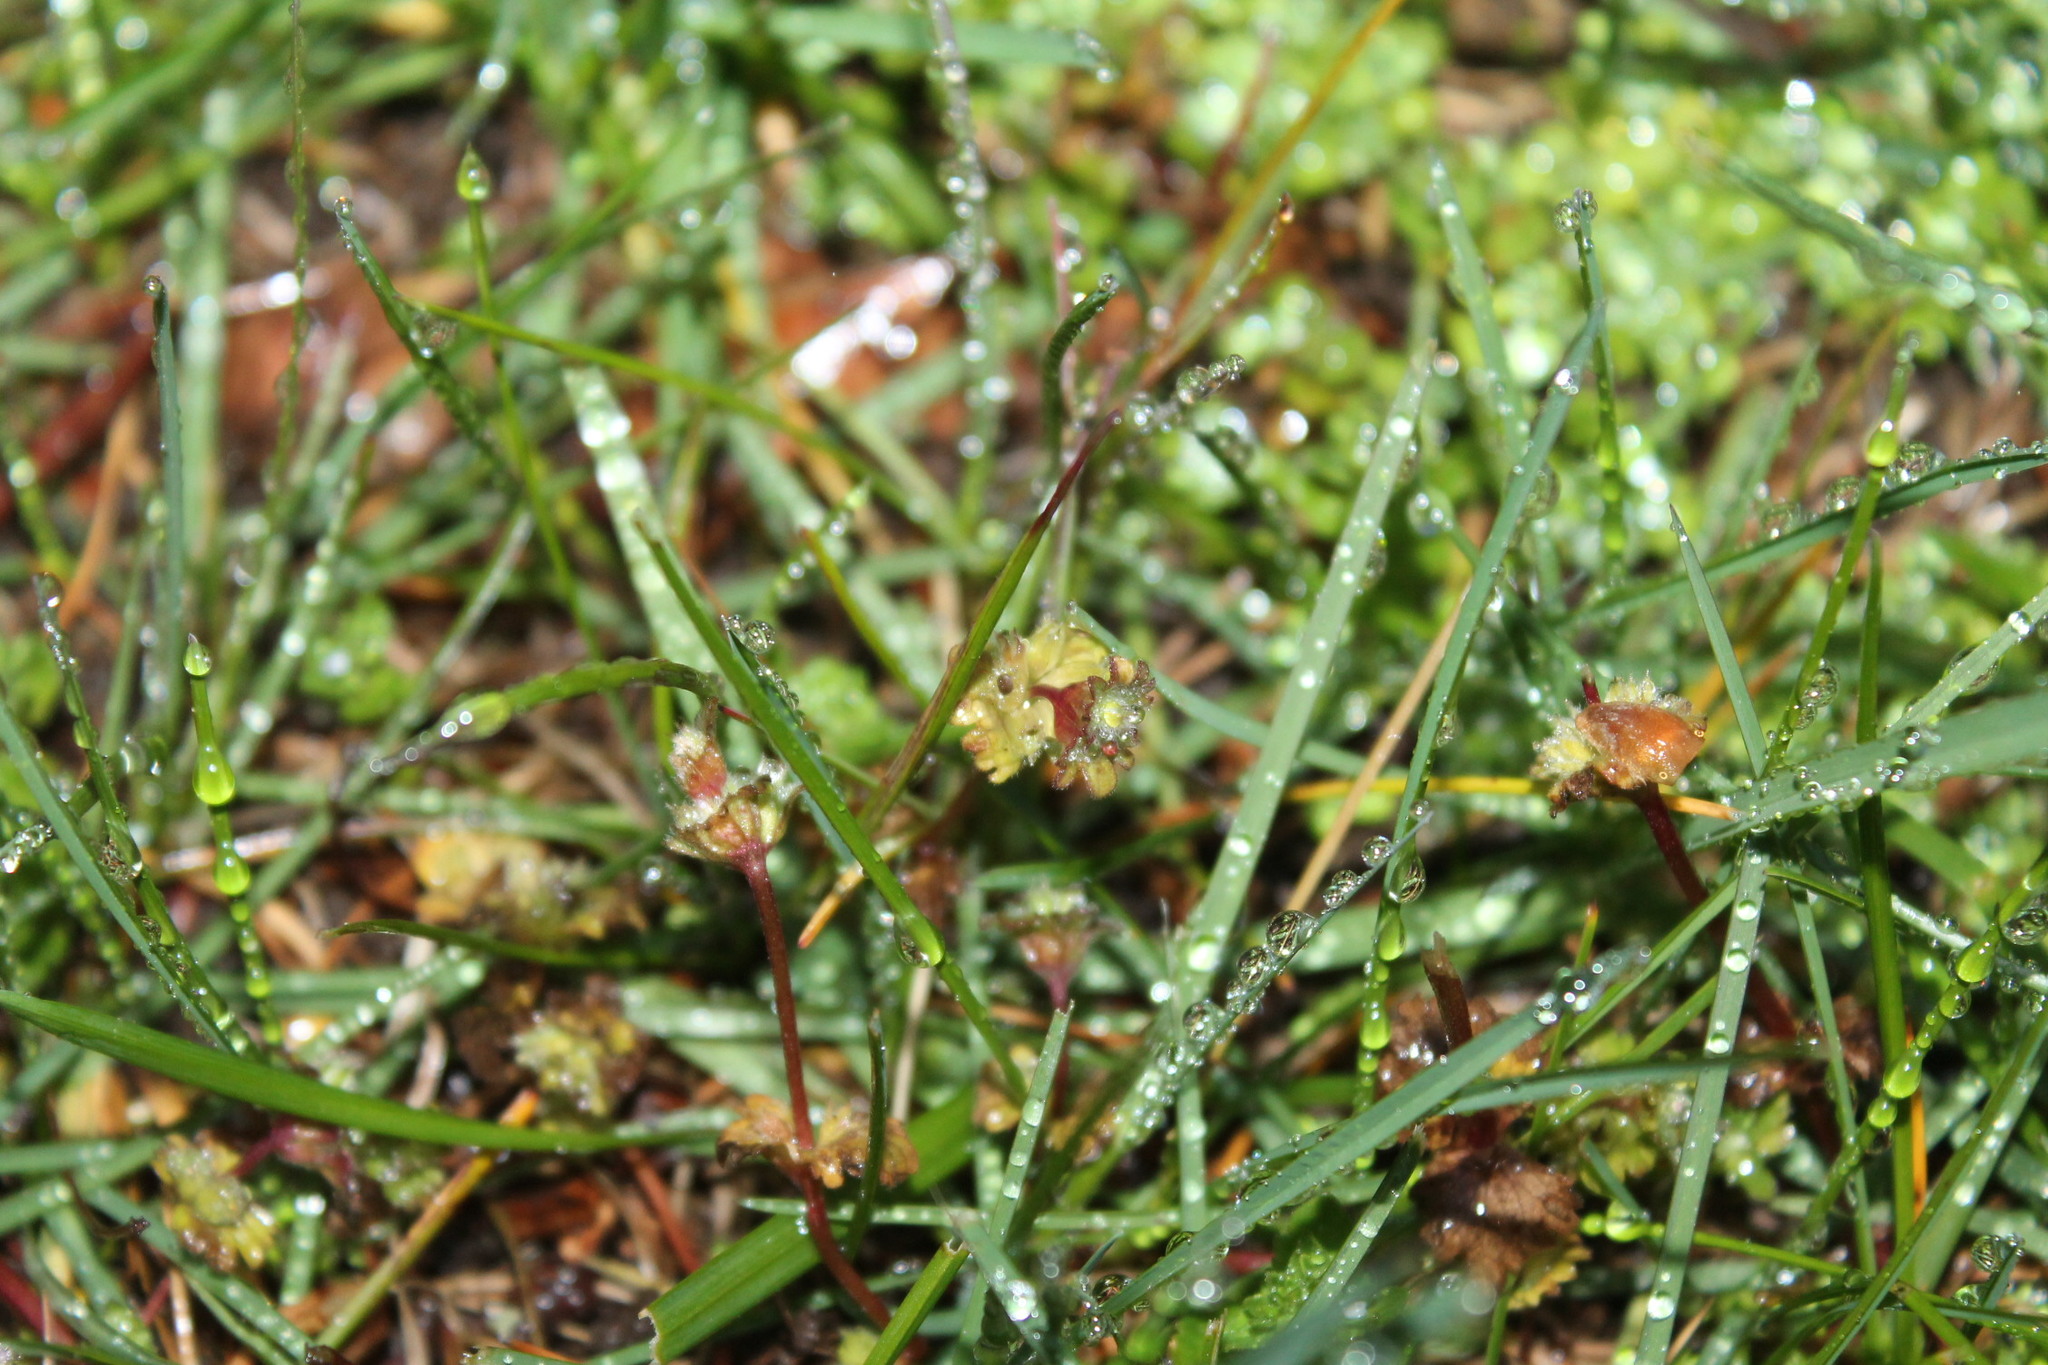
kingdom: Plantae
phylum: Tracheophyta
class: Magnoliopsida
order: Lamiales
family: Lamiaceae
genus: Lamium
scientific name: Lamium amplexicaule
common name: Henbit dead-nettle
